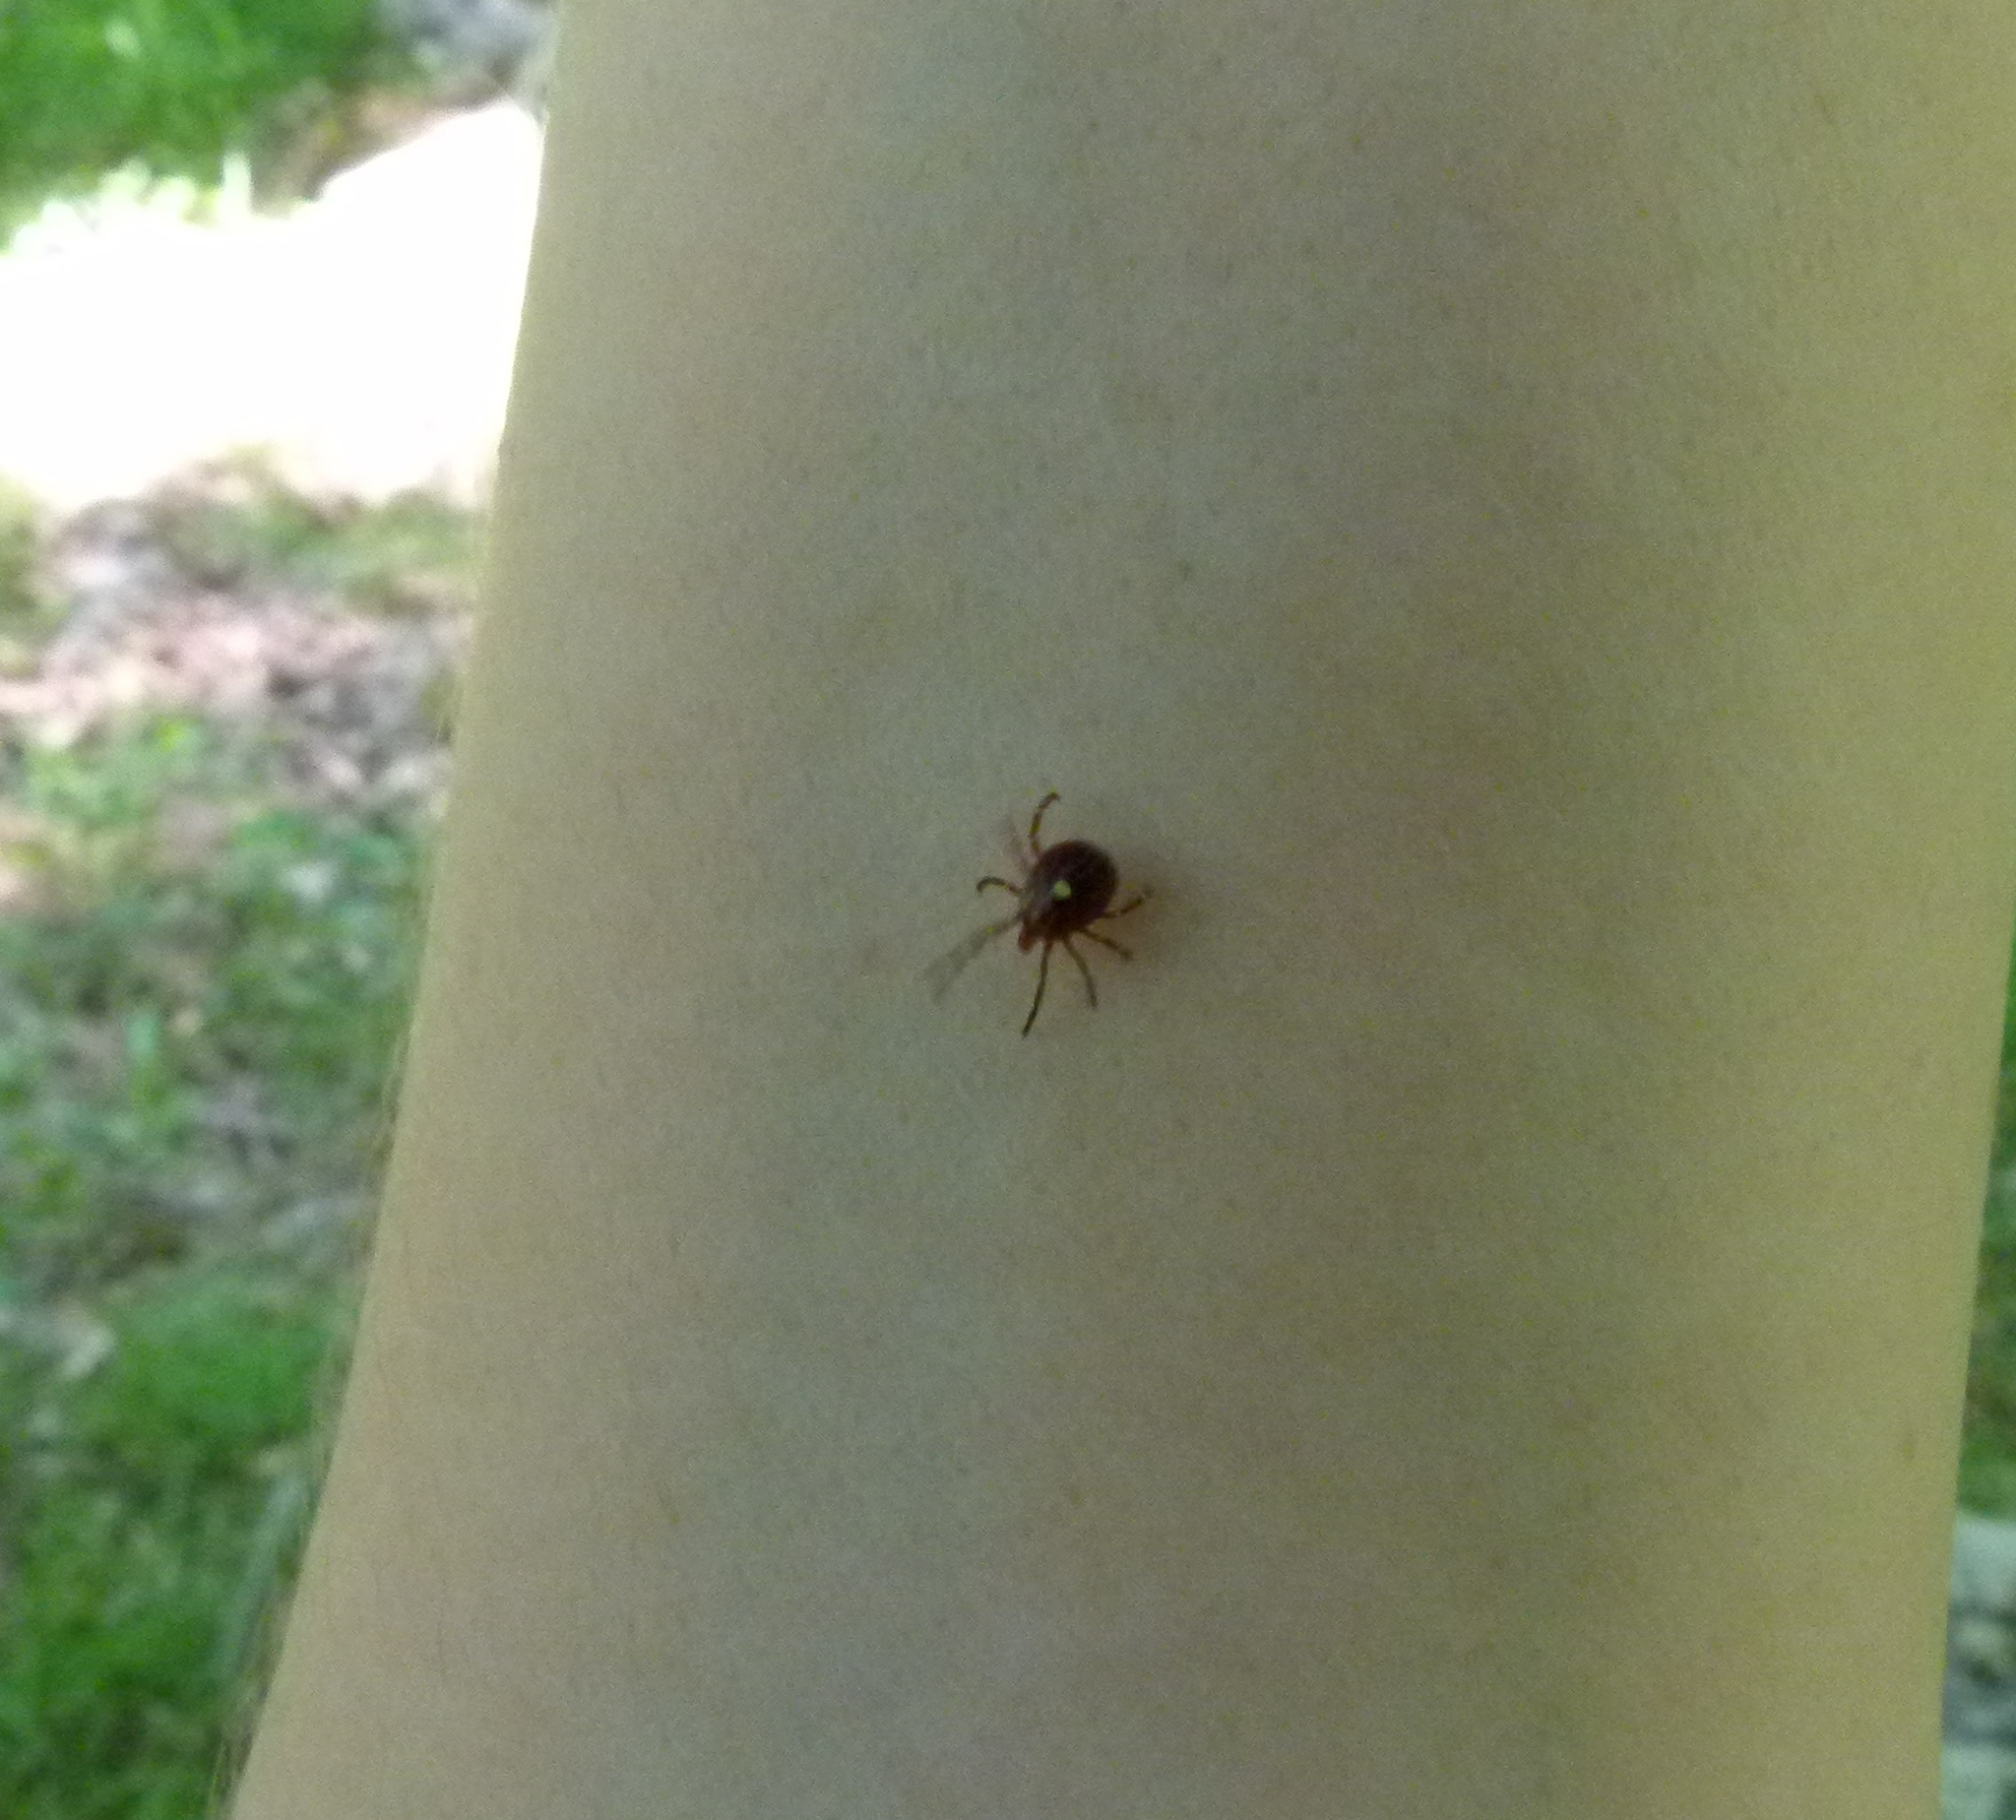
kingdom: Animalia
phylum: Arthropoda
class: Arachnida
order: Ixodida
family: Ixodidae
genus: Amblyomma
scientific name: Amblyomma americanum
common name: Lone star tick
